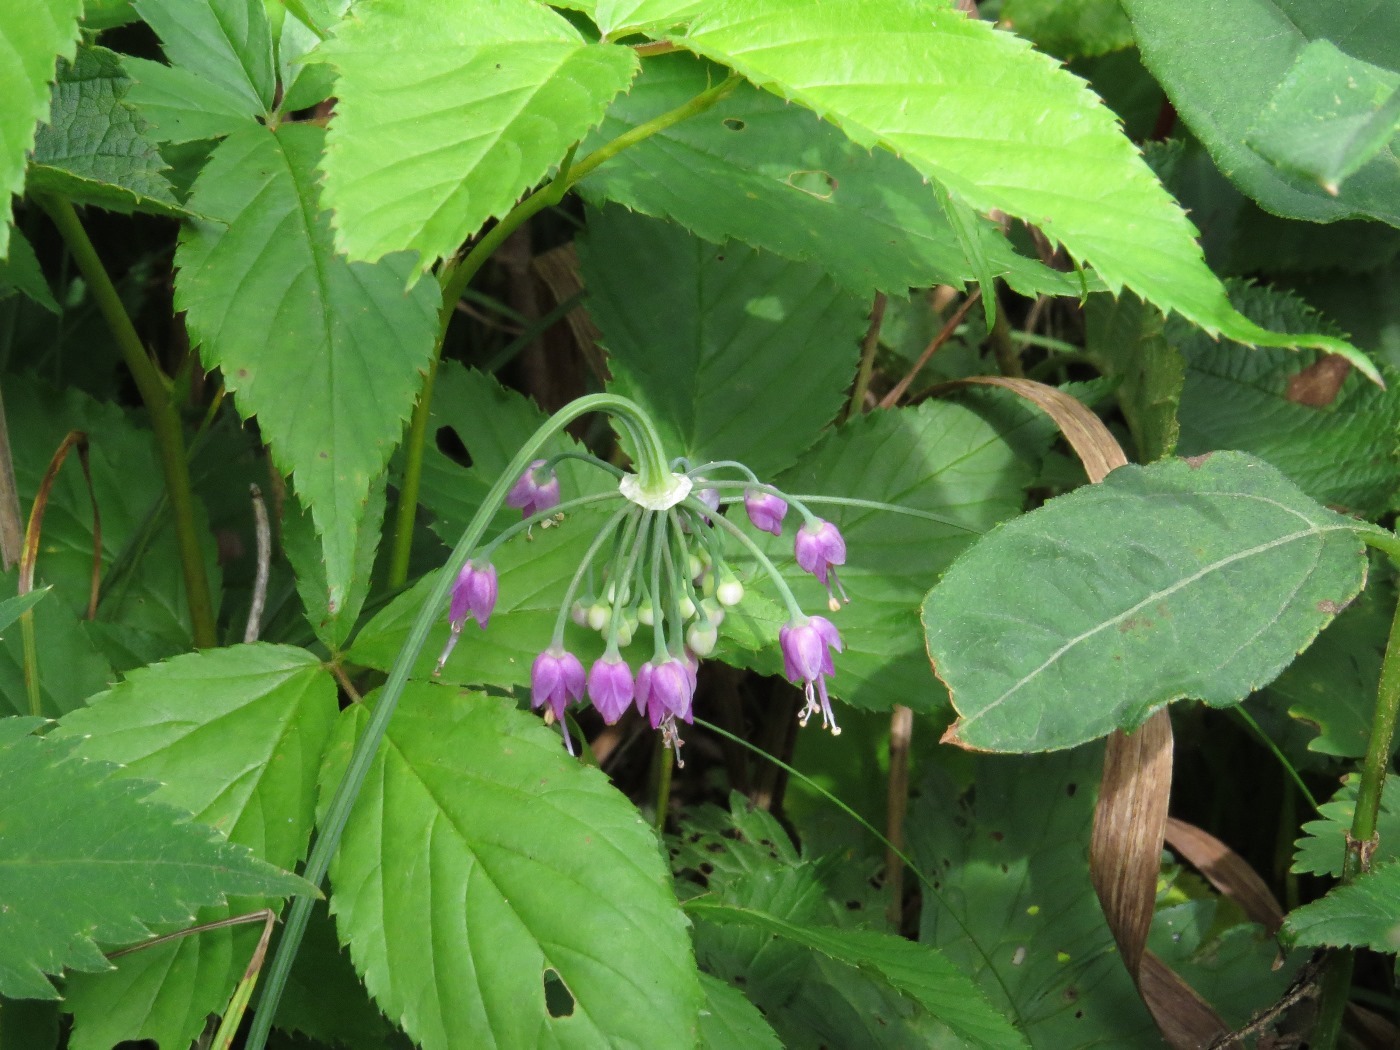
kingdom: Plantae
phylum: Tracheophyta
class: Liliopsida
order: Asparagales
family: Amaryllidaceae
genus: Allium
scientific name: Allium cernuum
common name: Nodding onion
